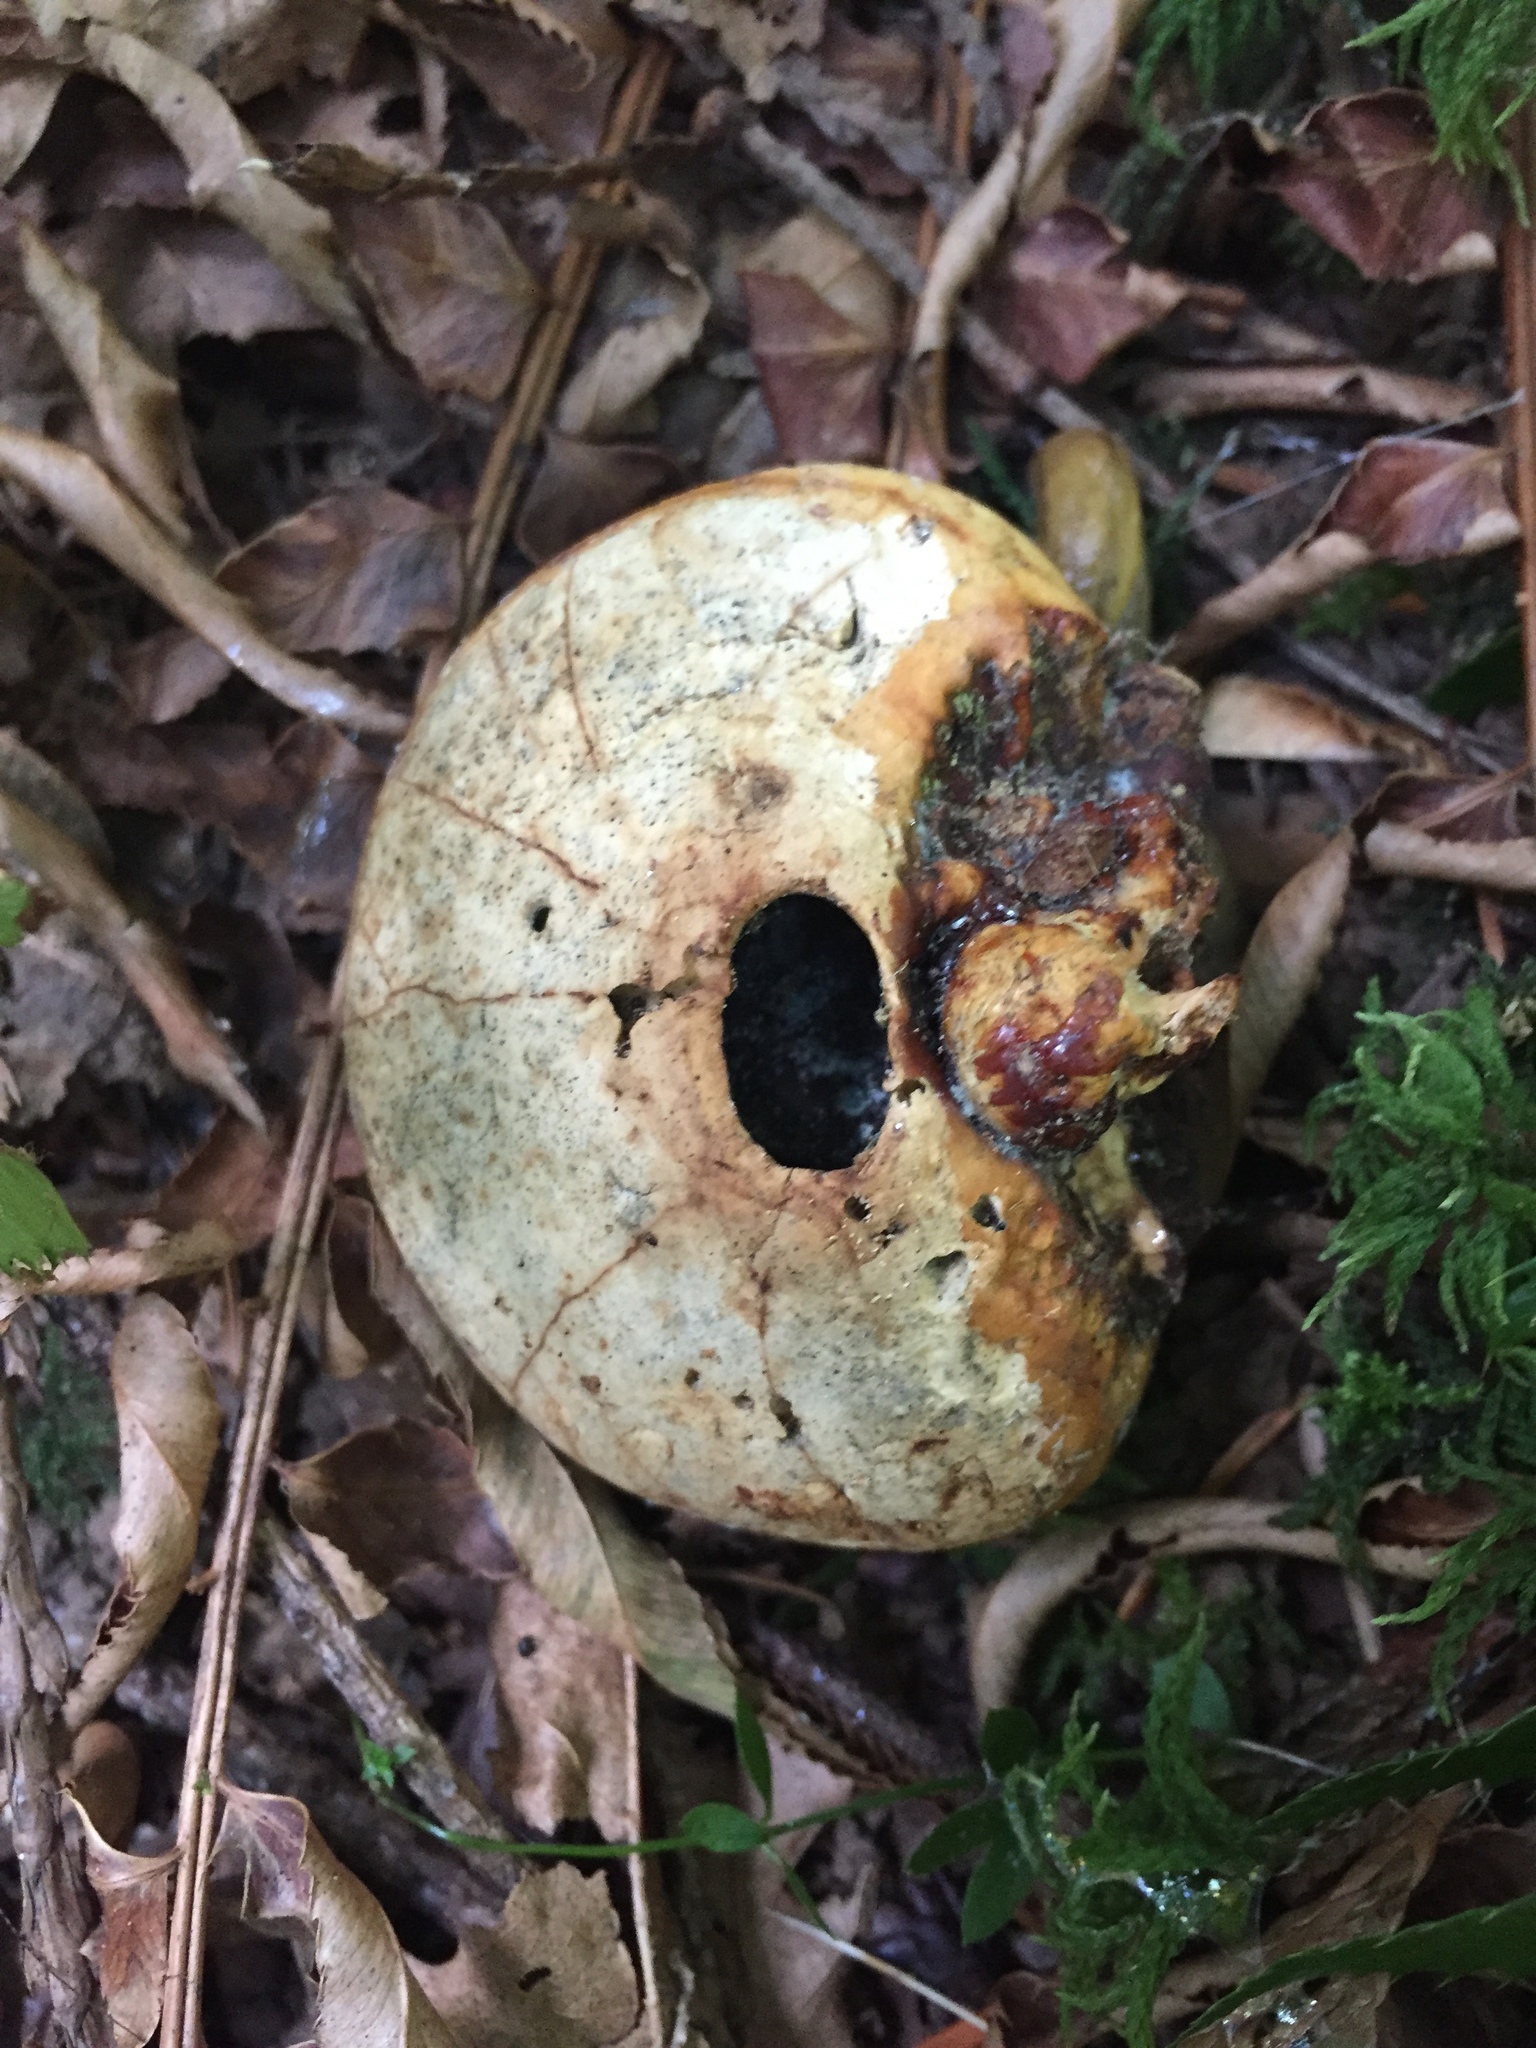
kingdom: Fungi
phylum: Basidiomycota
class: Agaricomycetes
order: Polyporales
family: Polyporaceae
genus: Cryptoporus
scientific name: Cryptoporus volvatus
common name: Veiled polypore
